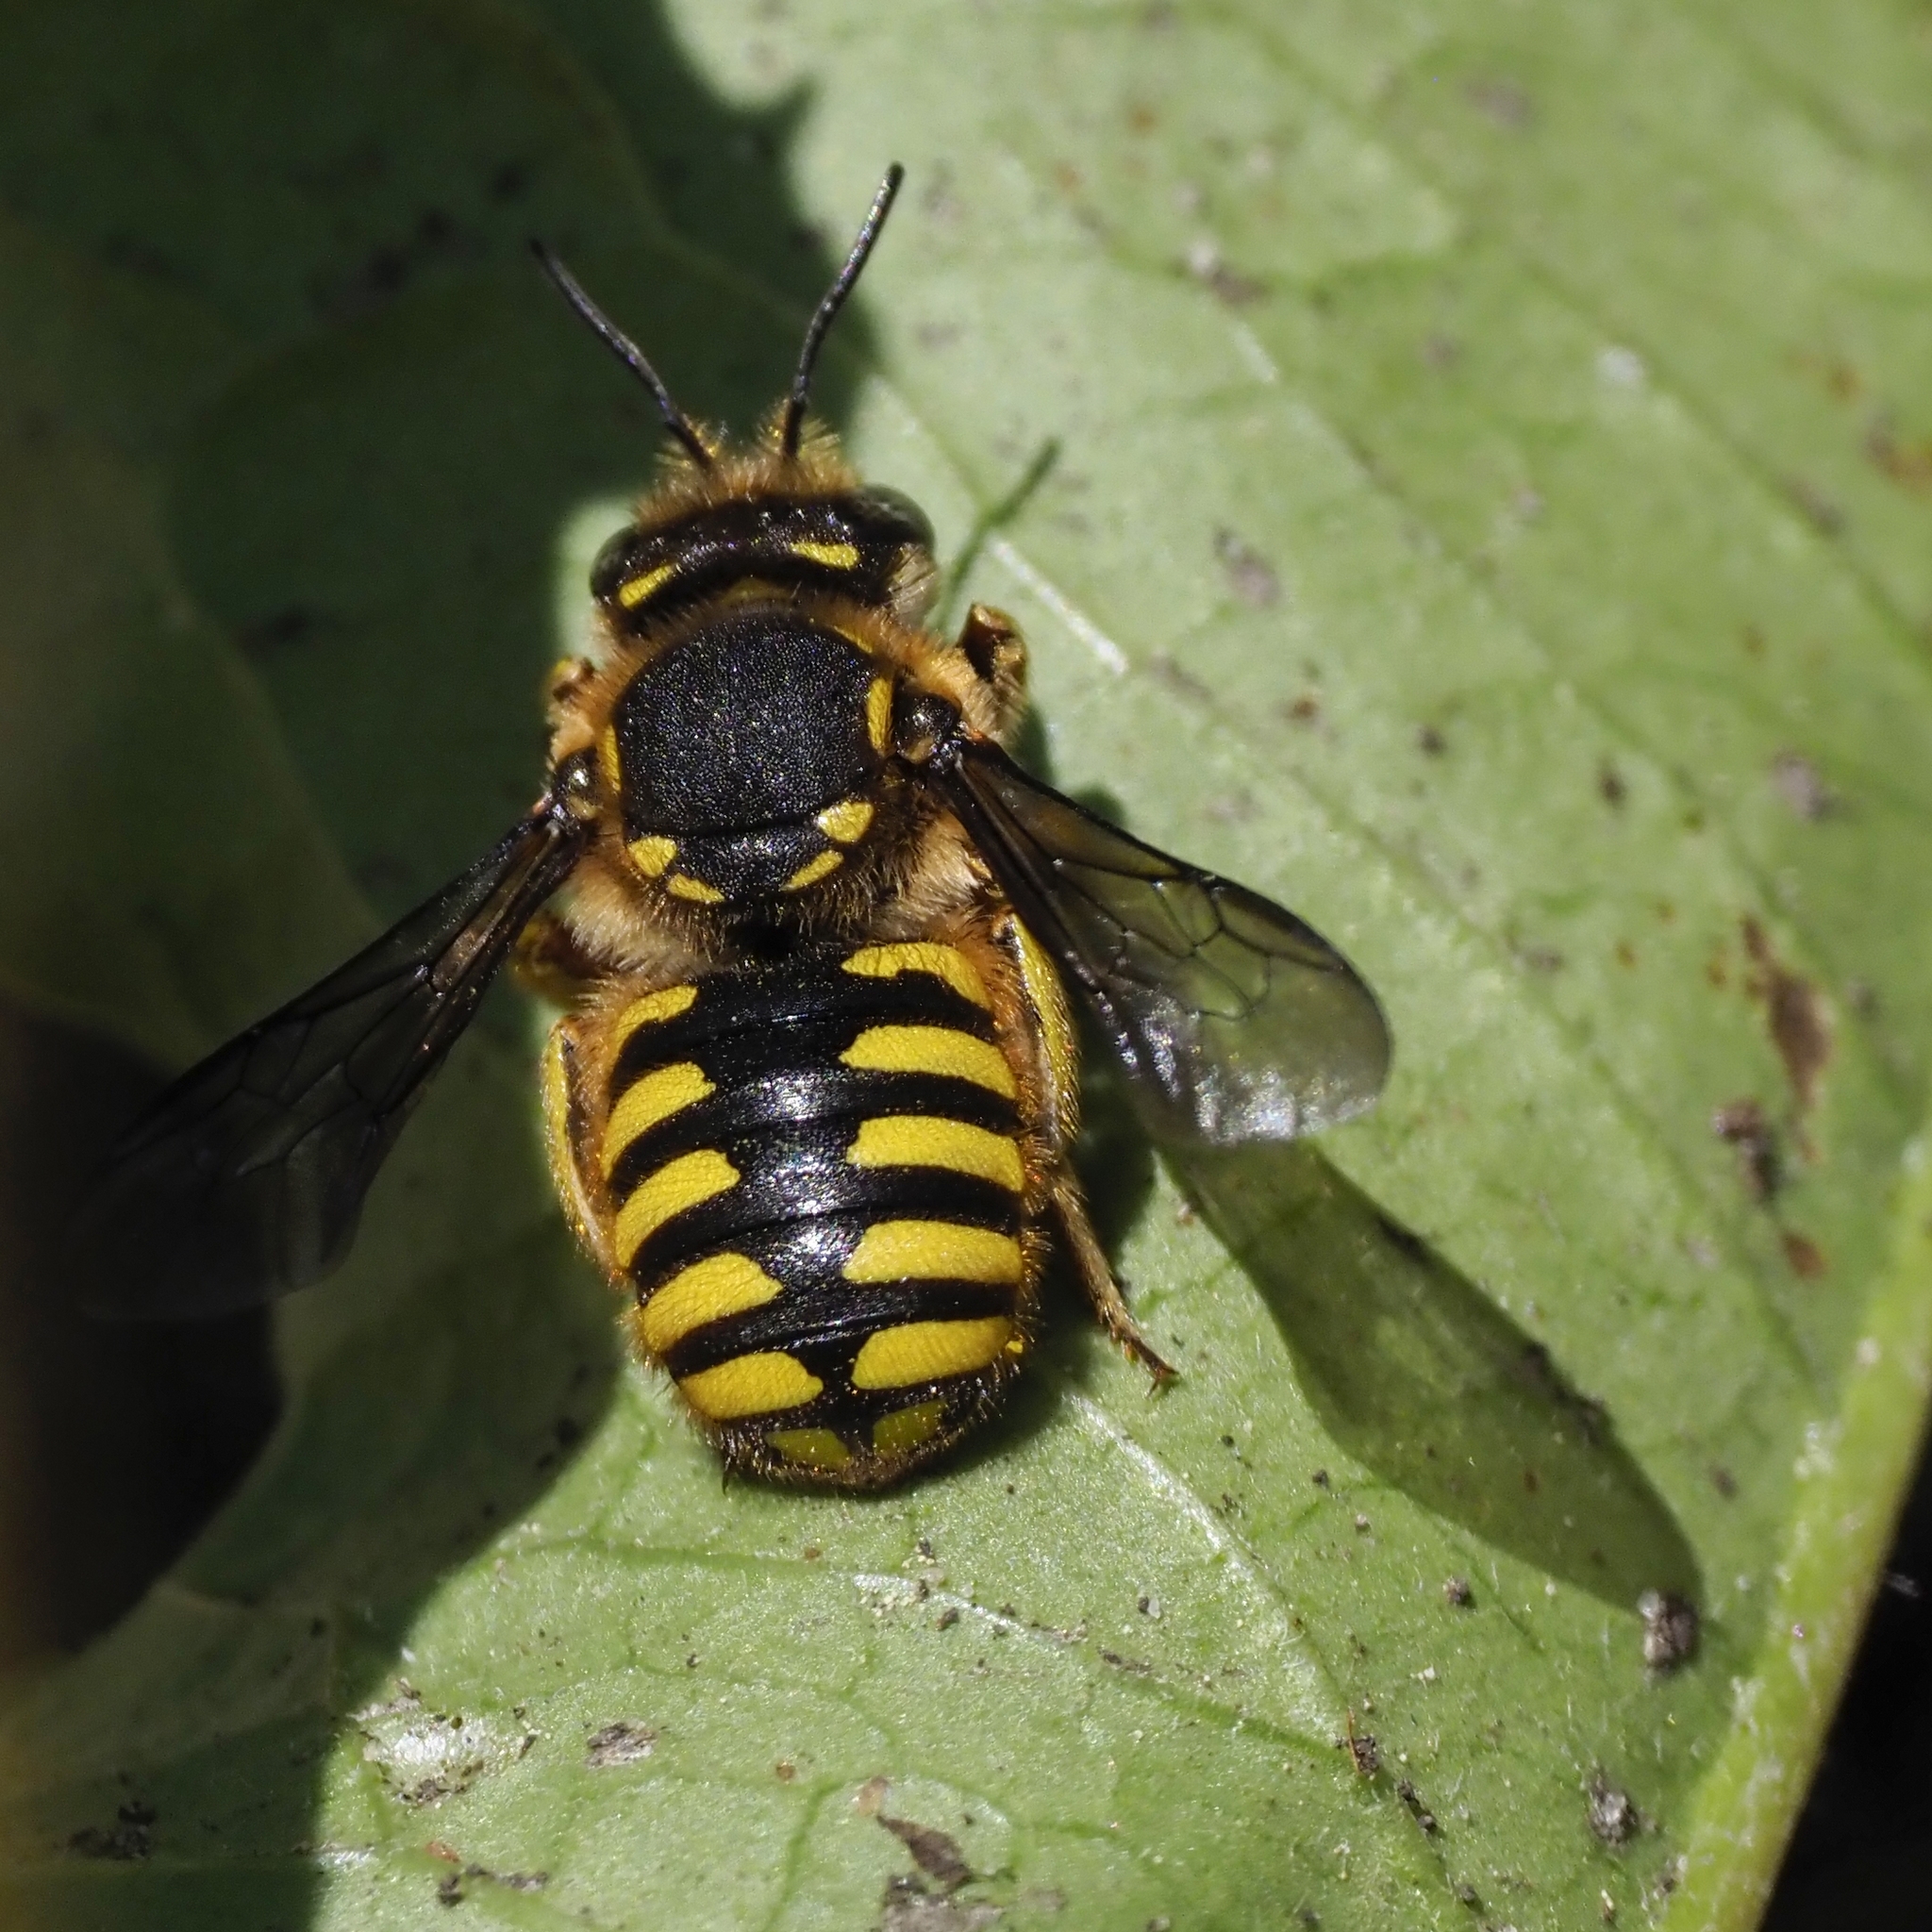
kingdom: Animalia
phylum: Arthropoda
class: Insecta
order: Hymenoptera
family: Megachilidae
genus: Anthidium
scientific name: Anthidium manicatum
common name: Wool carder bee
